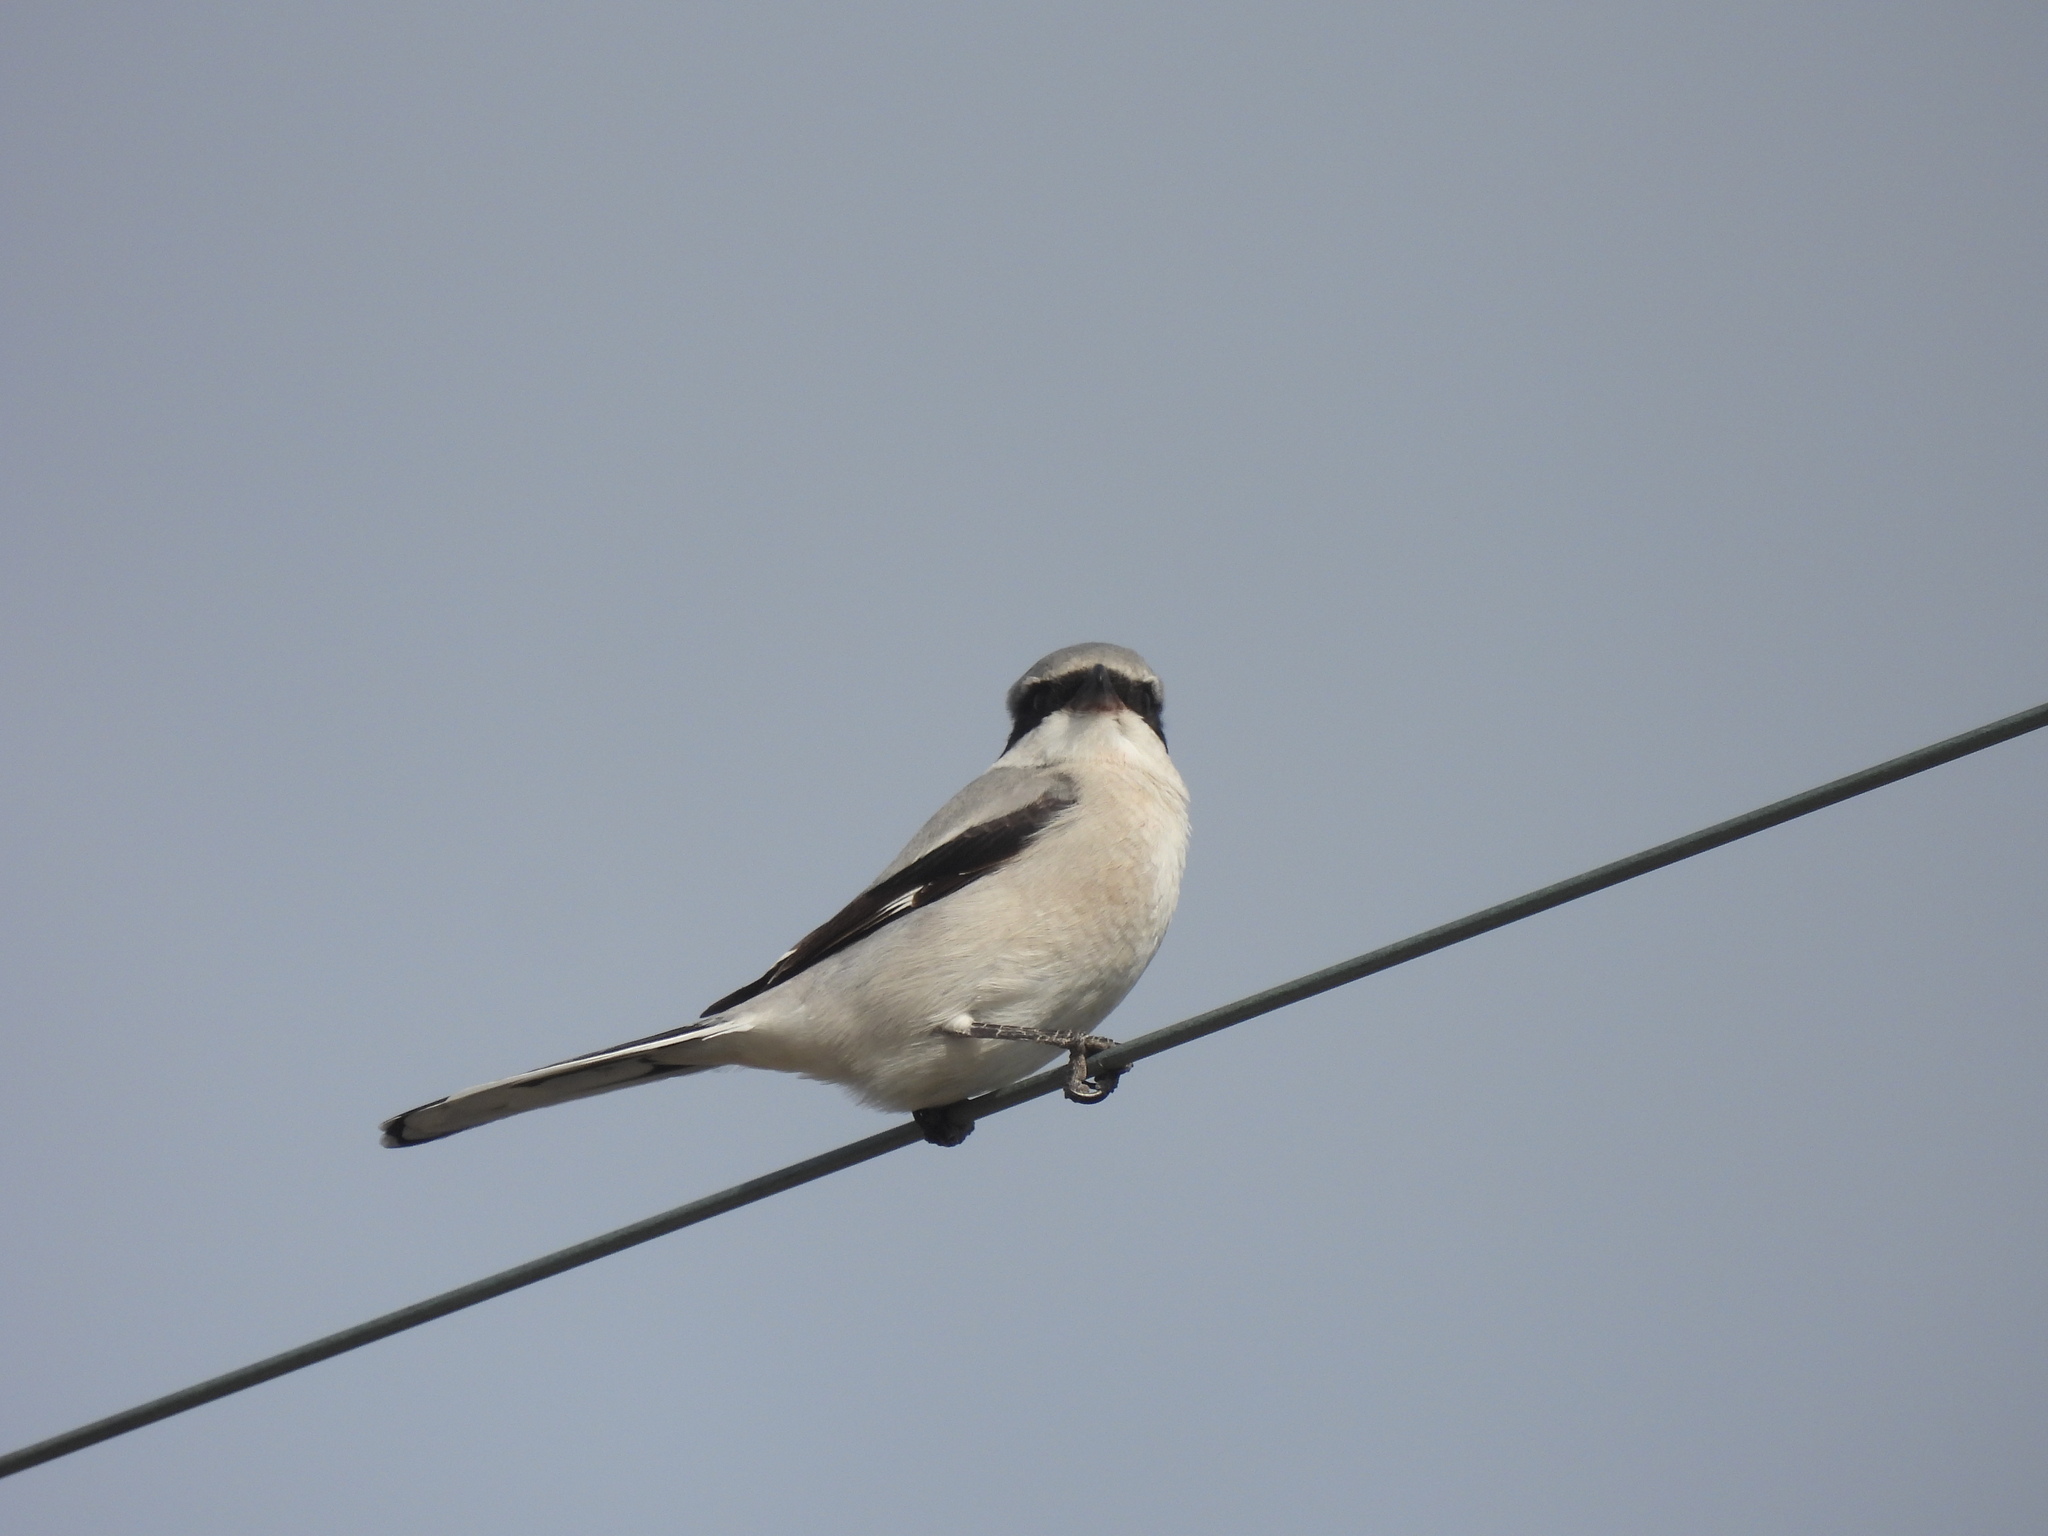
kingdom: Animalia
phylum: Chordata
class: Aves
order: Passeriformes
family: Laniidae
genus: Lanius
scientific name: Lanius ludovicianus
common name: Loggerhead shrike
